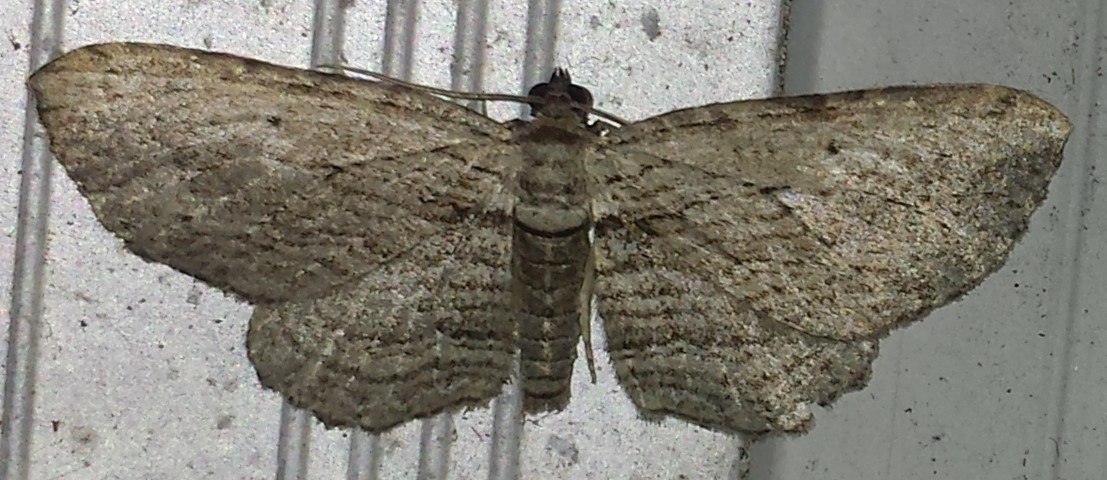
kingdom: Animalia
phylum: Arthropoda
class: Insecta
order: Lepidoptera
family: Geometridae
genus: Horisme
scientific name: Horisme intestinata
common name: Brown bark carpet
